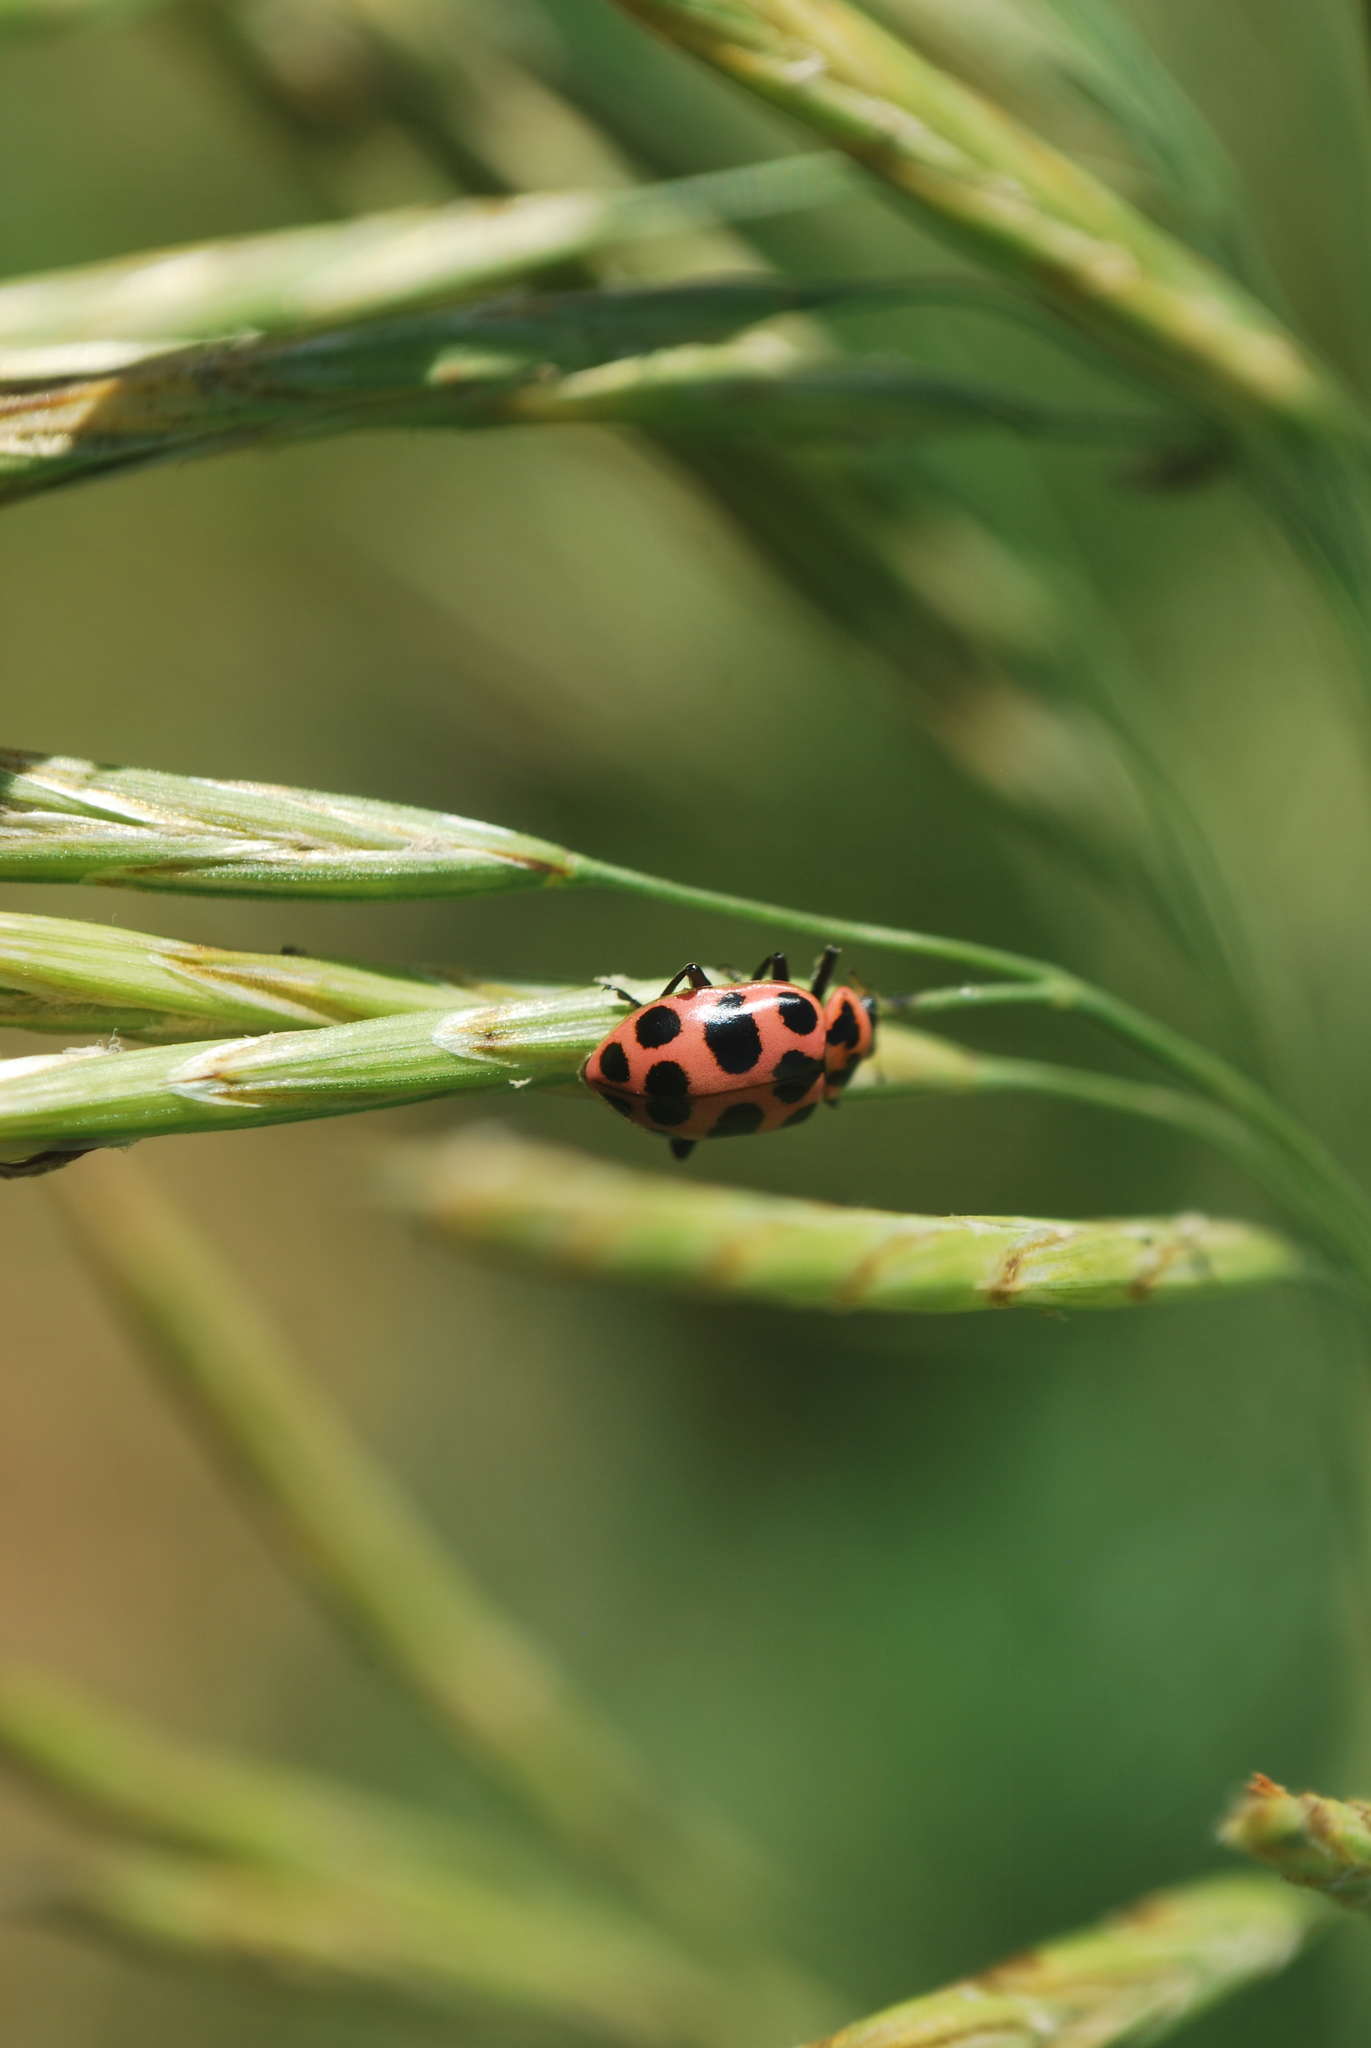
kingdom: Animalia
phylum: Arthropoda
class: Insecta
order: Coleoptera
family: Coccinellidae
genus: Coleomegilla
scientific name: Coleomegilla maculata
